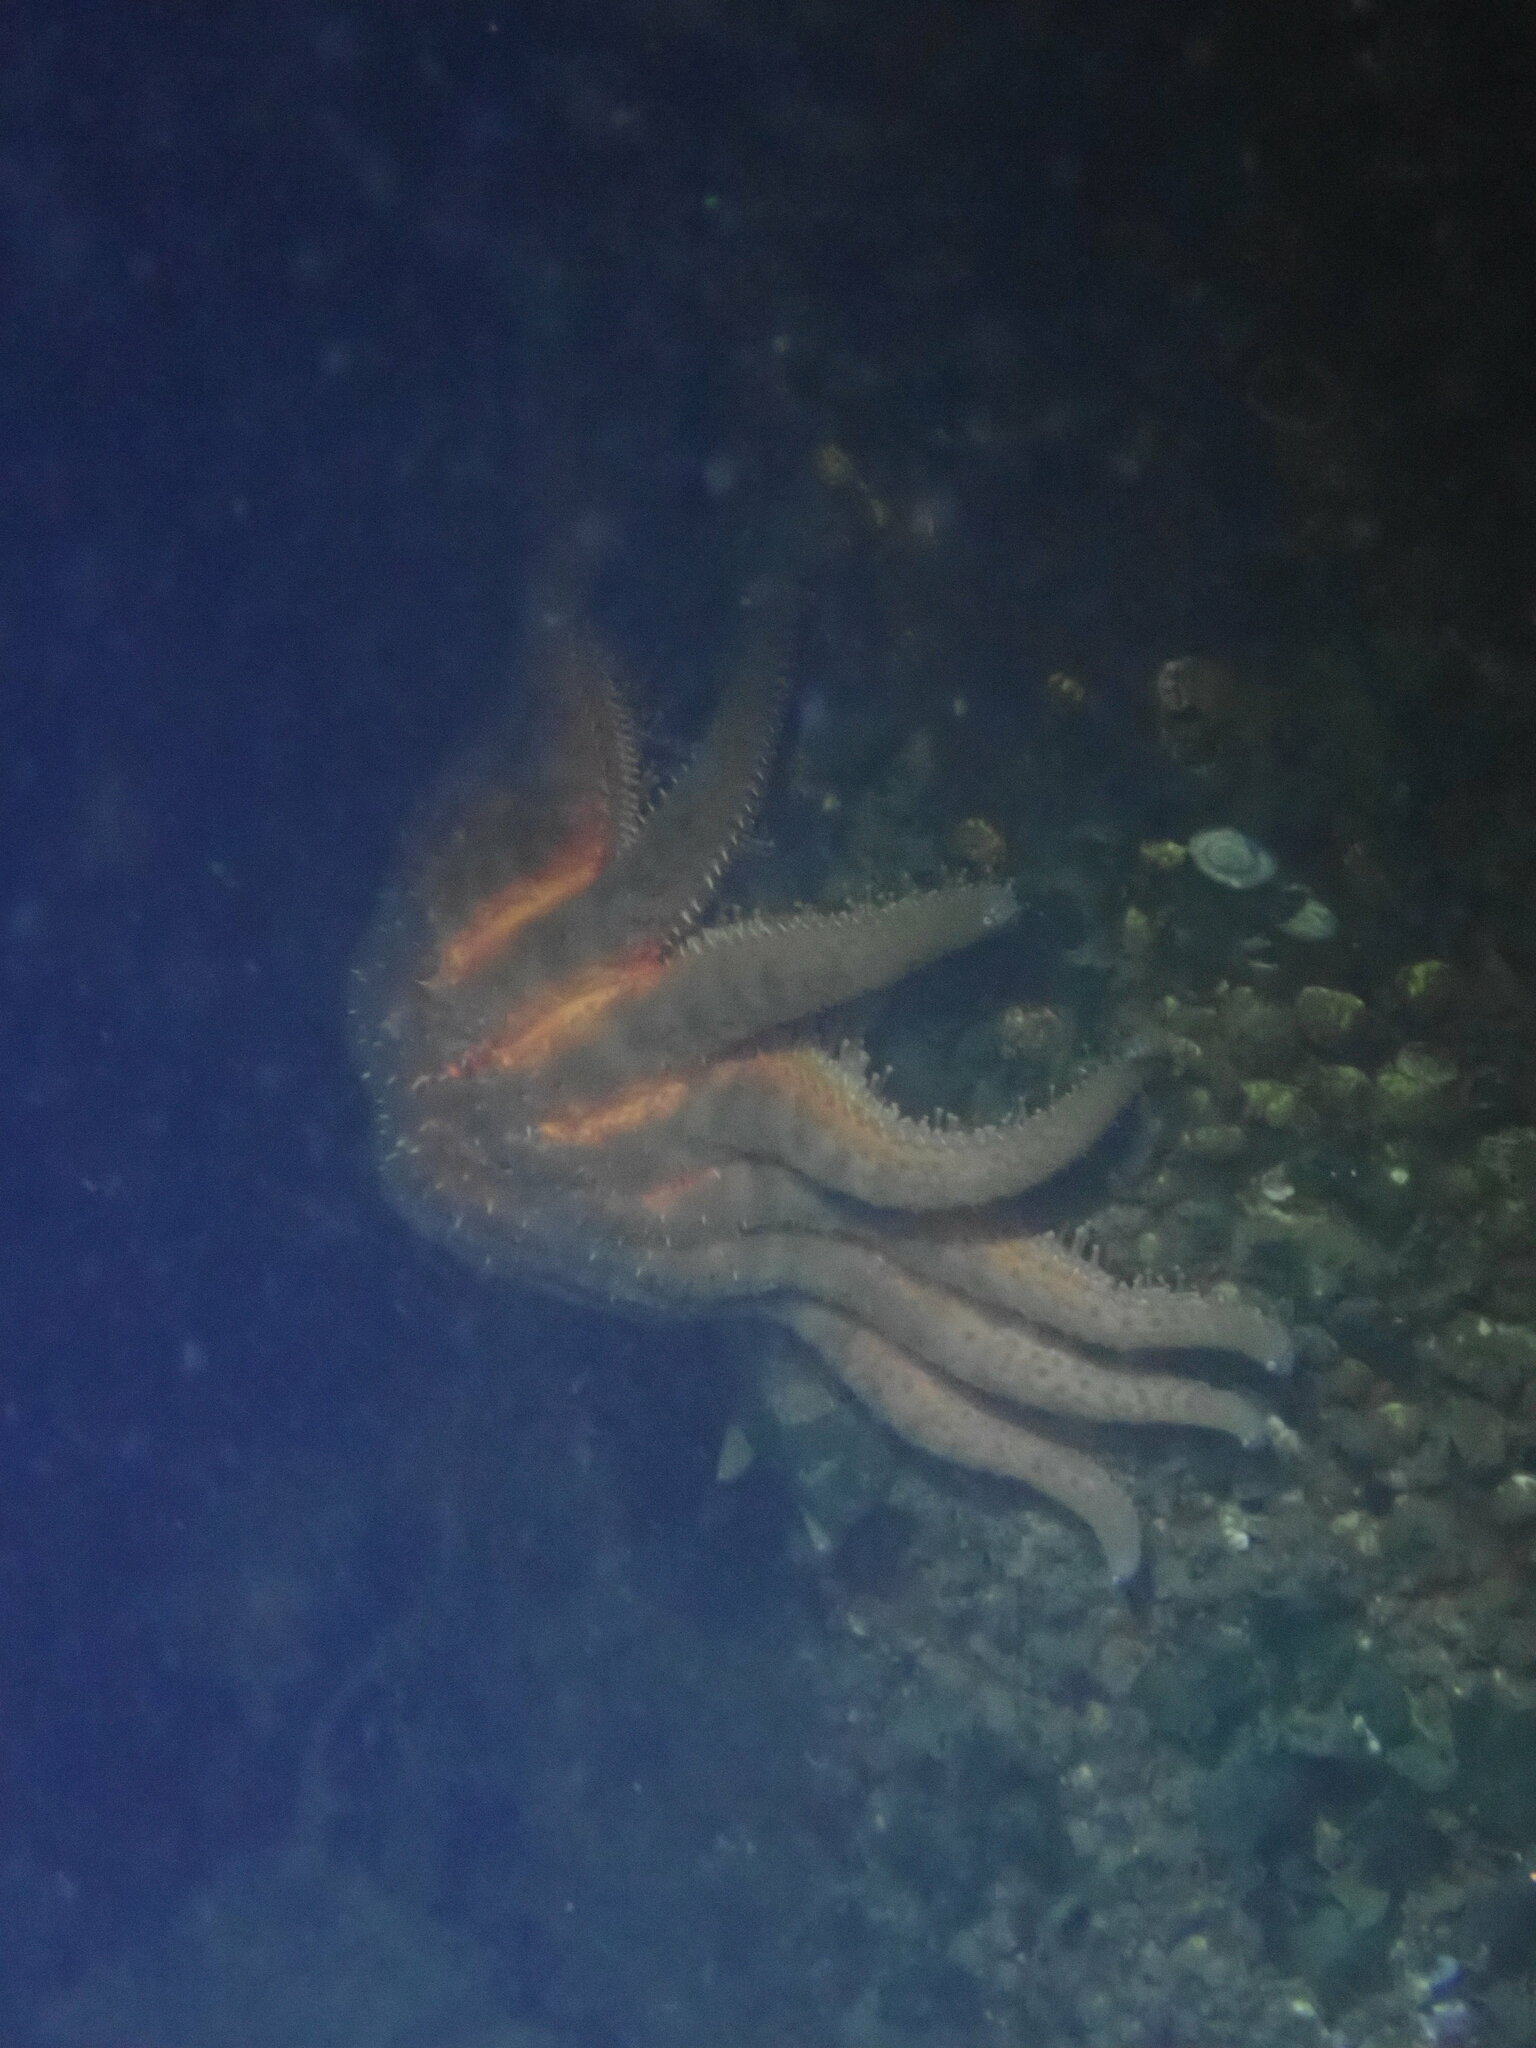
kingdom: Animalia
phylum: Echinodermata
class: Asteroidea
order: Forcipulatida
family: Asteriidae
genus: Pycnopodia
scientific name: Pycnopodia helianthoides
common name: Rag mop
